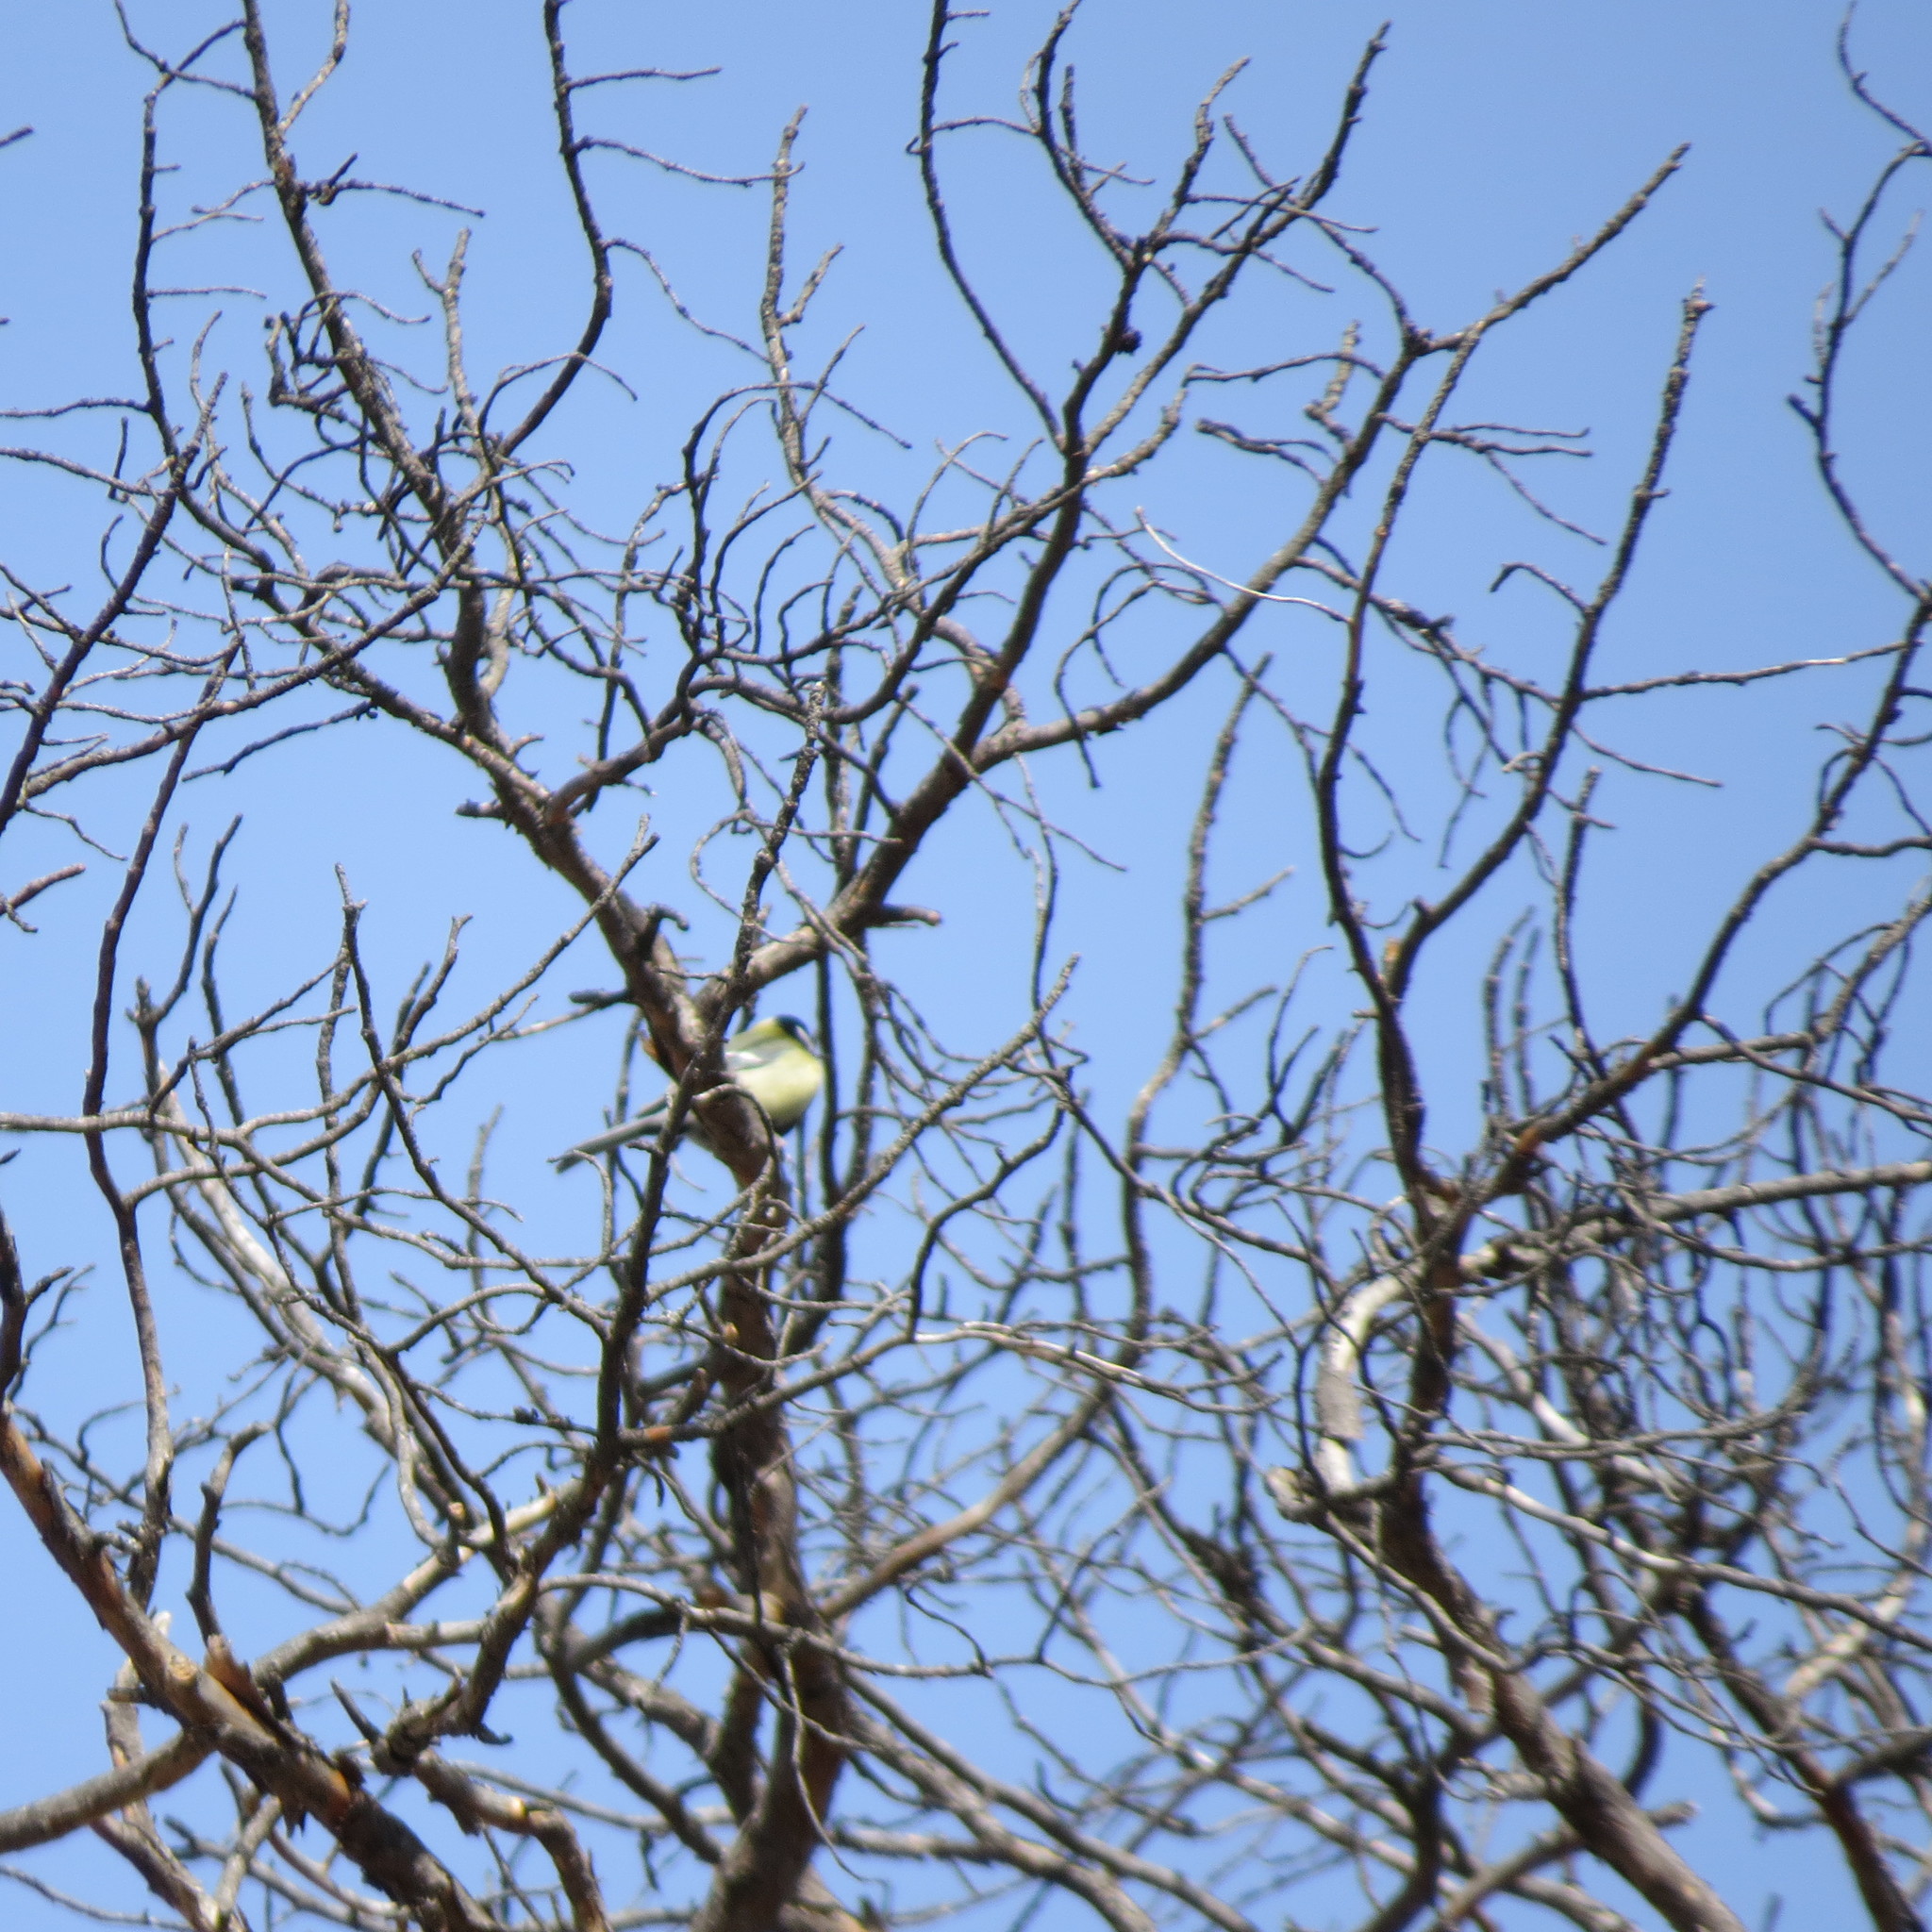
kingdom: Animalia
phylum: Chordata
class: Aves
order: Passeriformes
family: Paridae
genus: Parus
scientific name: Parus major
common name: Great tit
